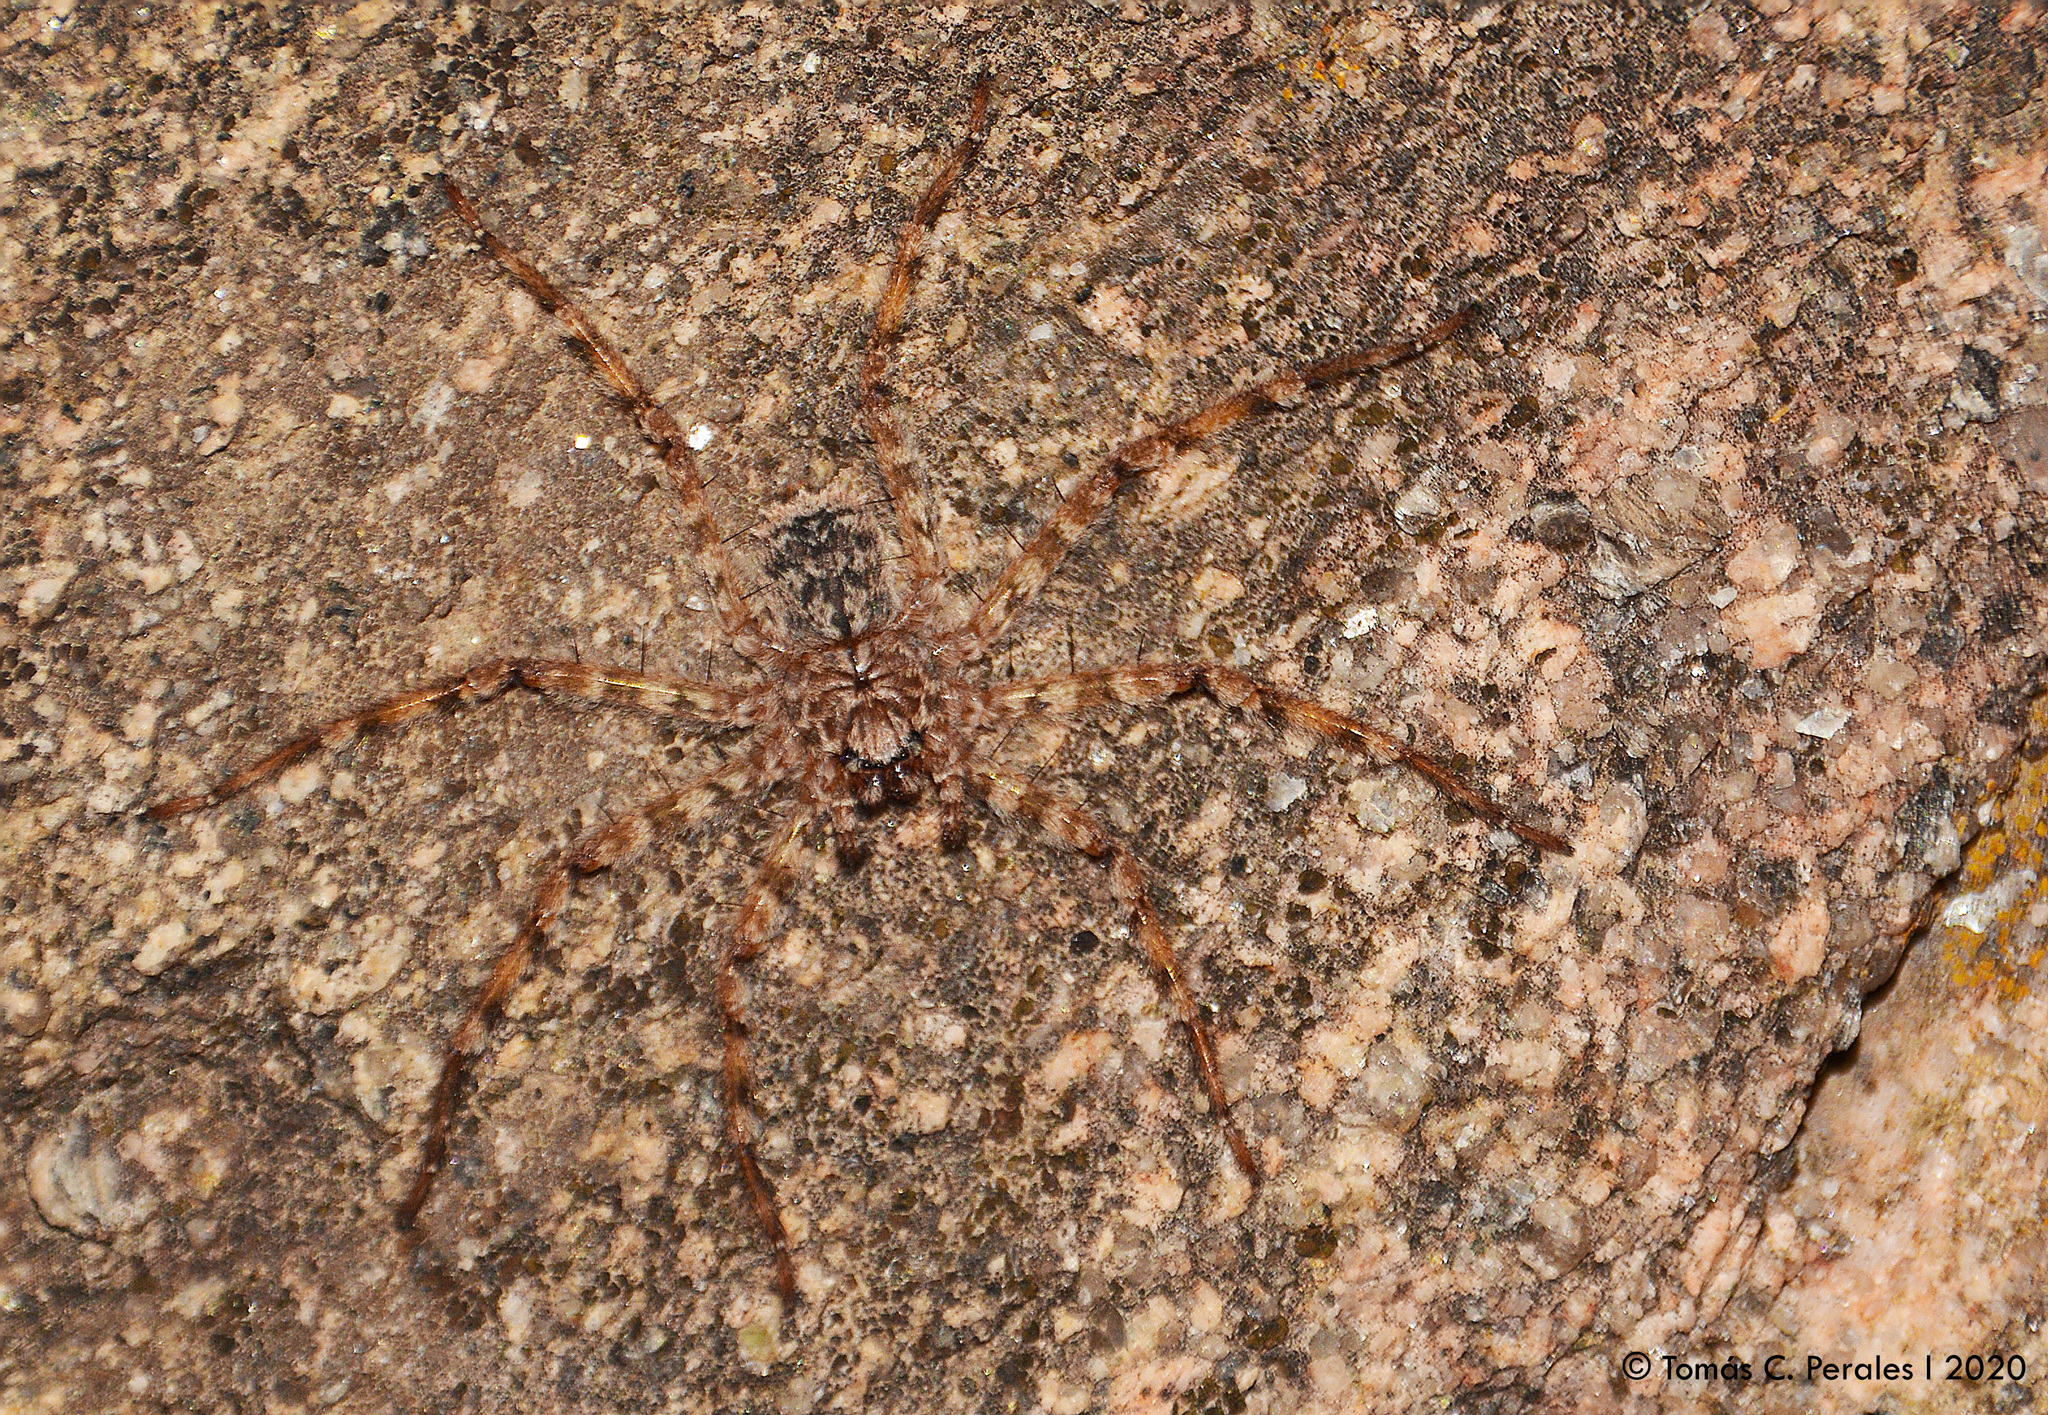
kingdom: Animalia
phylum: Arthropoda
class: Arachnida
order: Araneae
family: Selenopidae
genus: Selenops
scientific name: Selenops
